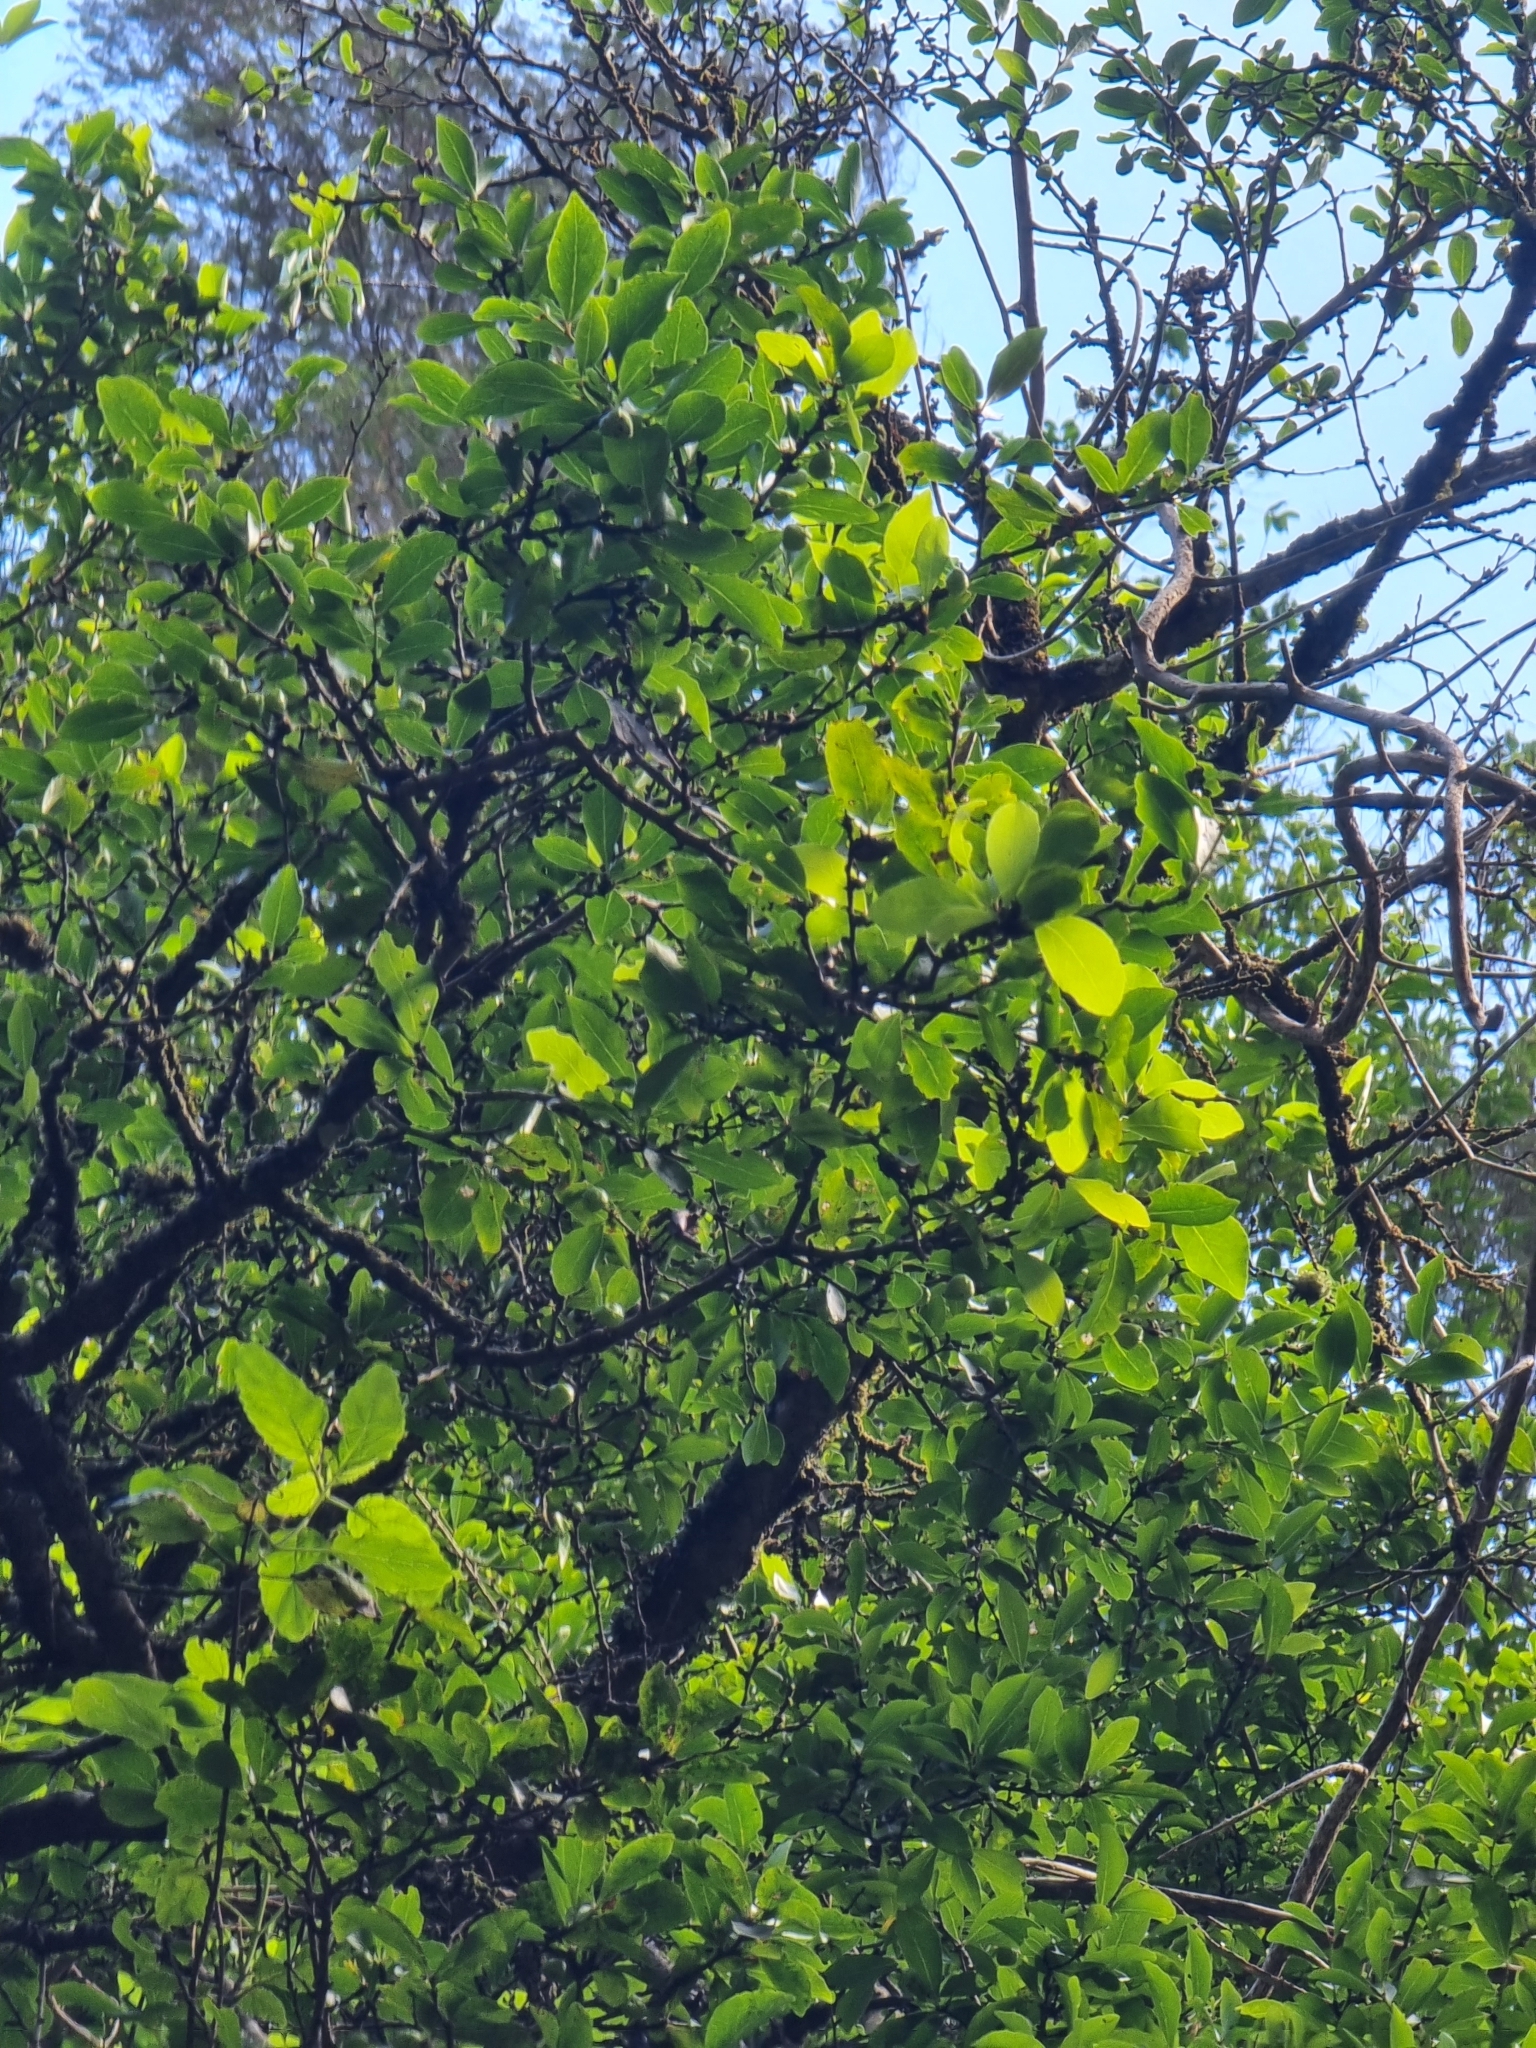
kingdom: Plantae
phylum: Tracheophyta
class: Magnoliopsida
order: Celastrales
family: Celastraceae
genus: Gymnosporia
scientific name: Gymnosporia dryandri
